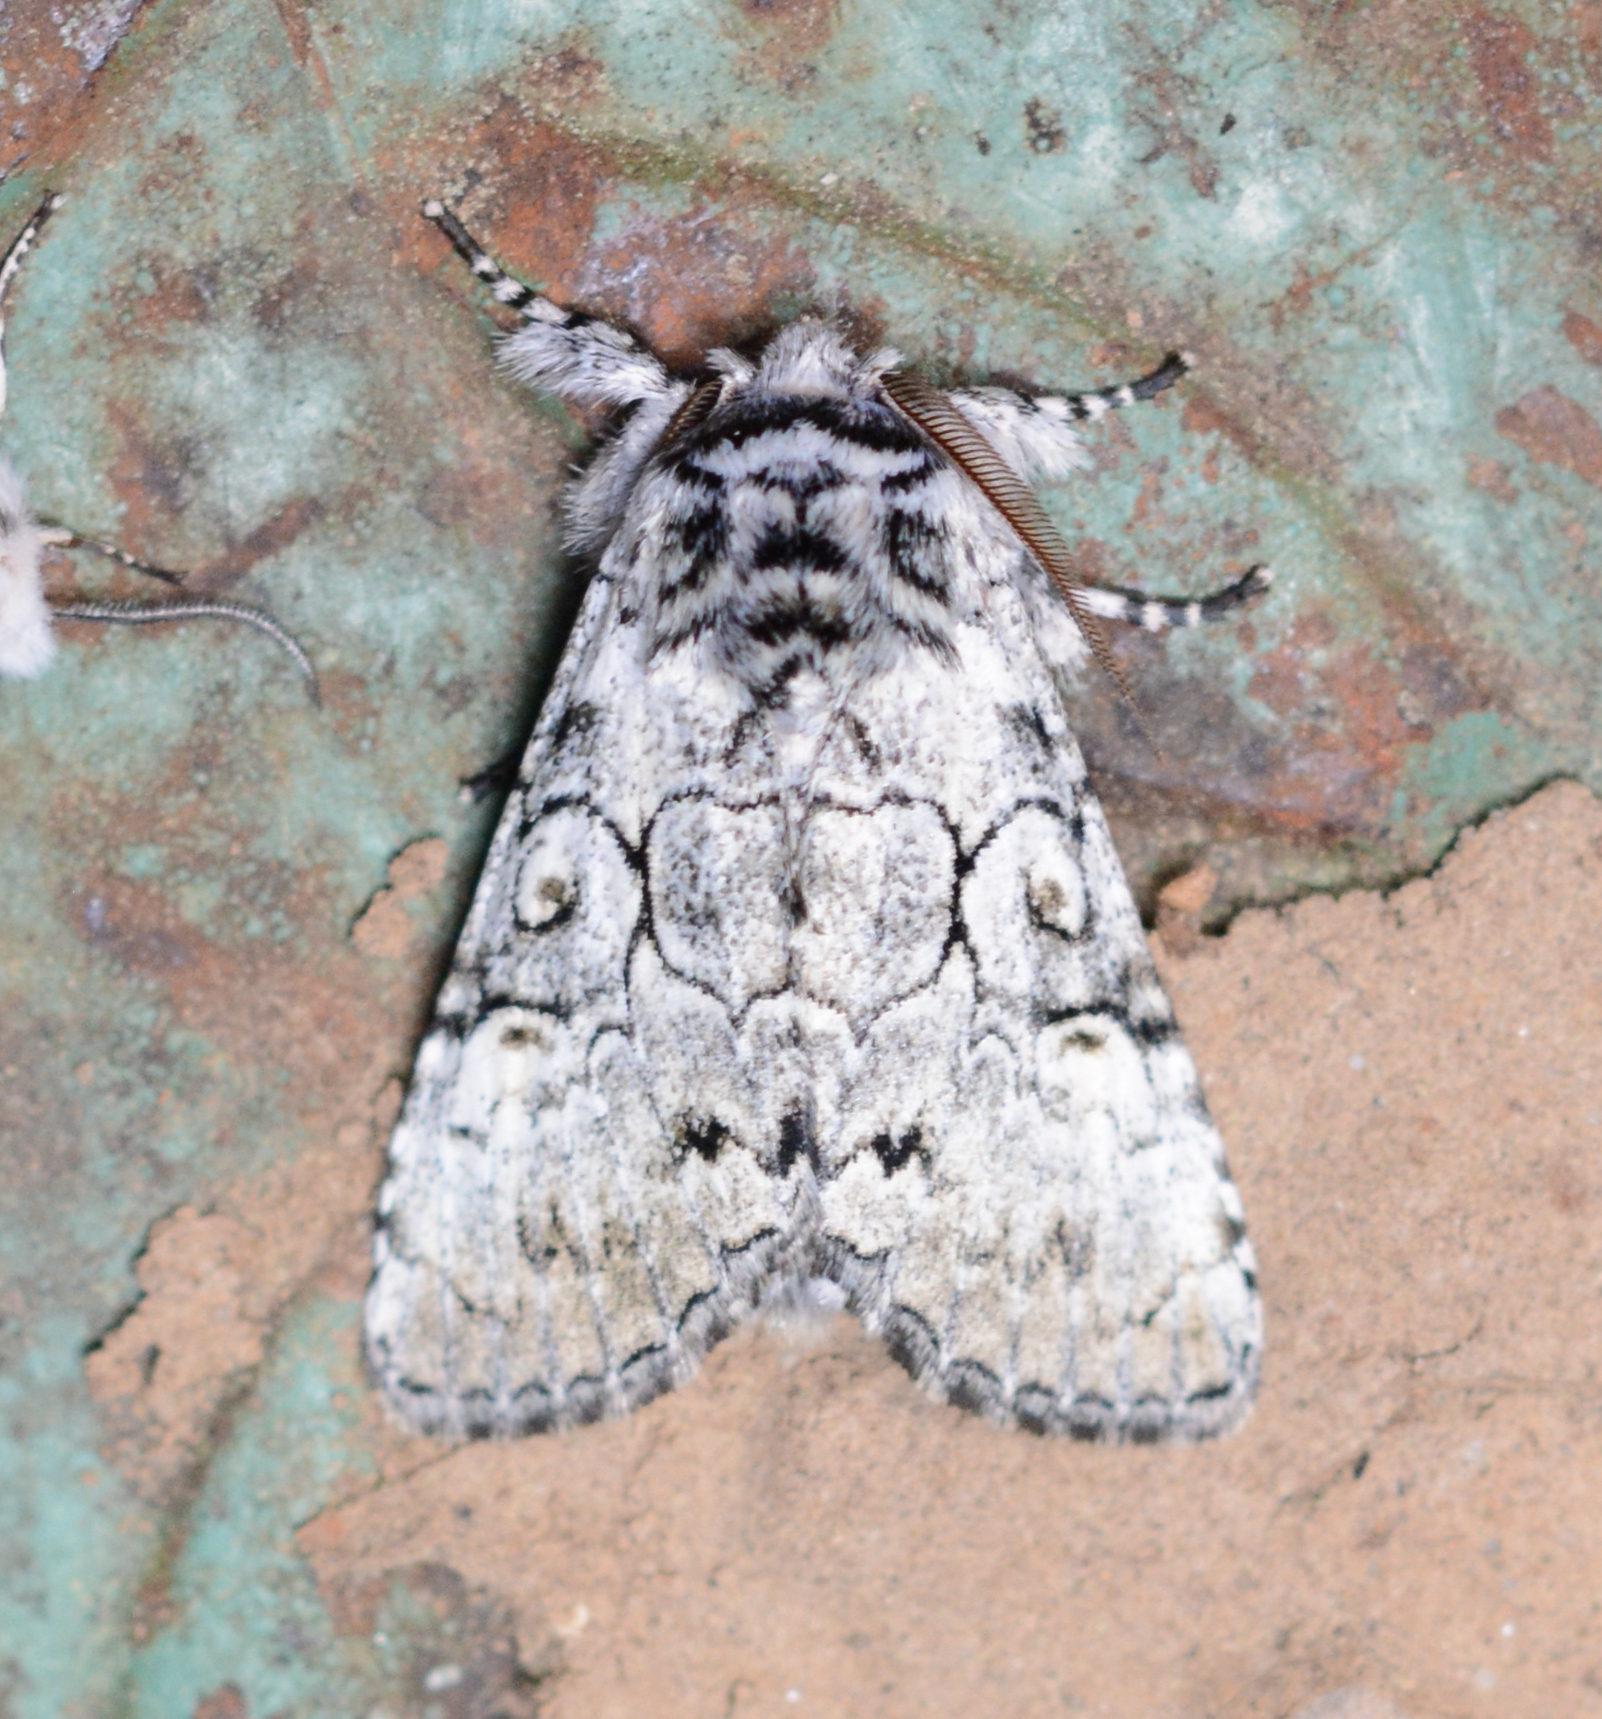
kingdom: Animalia
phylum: Arthropoda
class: Insecta
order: Lepidoptera
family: Noctuidae
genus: Charadra
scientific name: Charadra deridens
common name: Marbled tuffet
